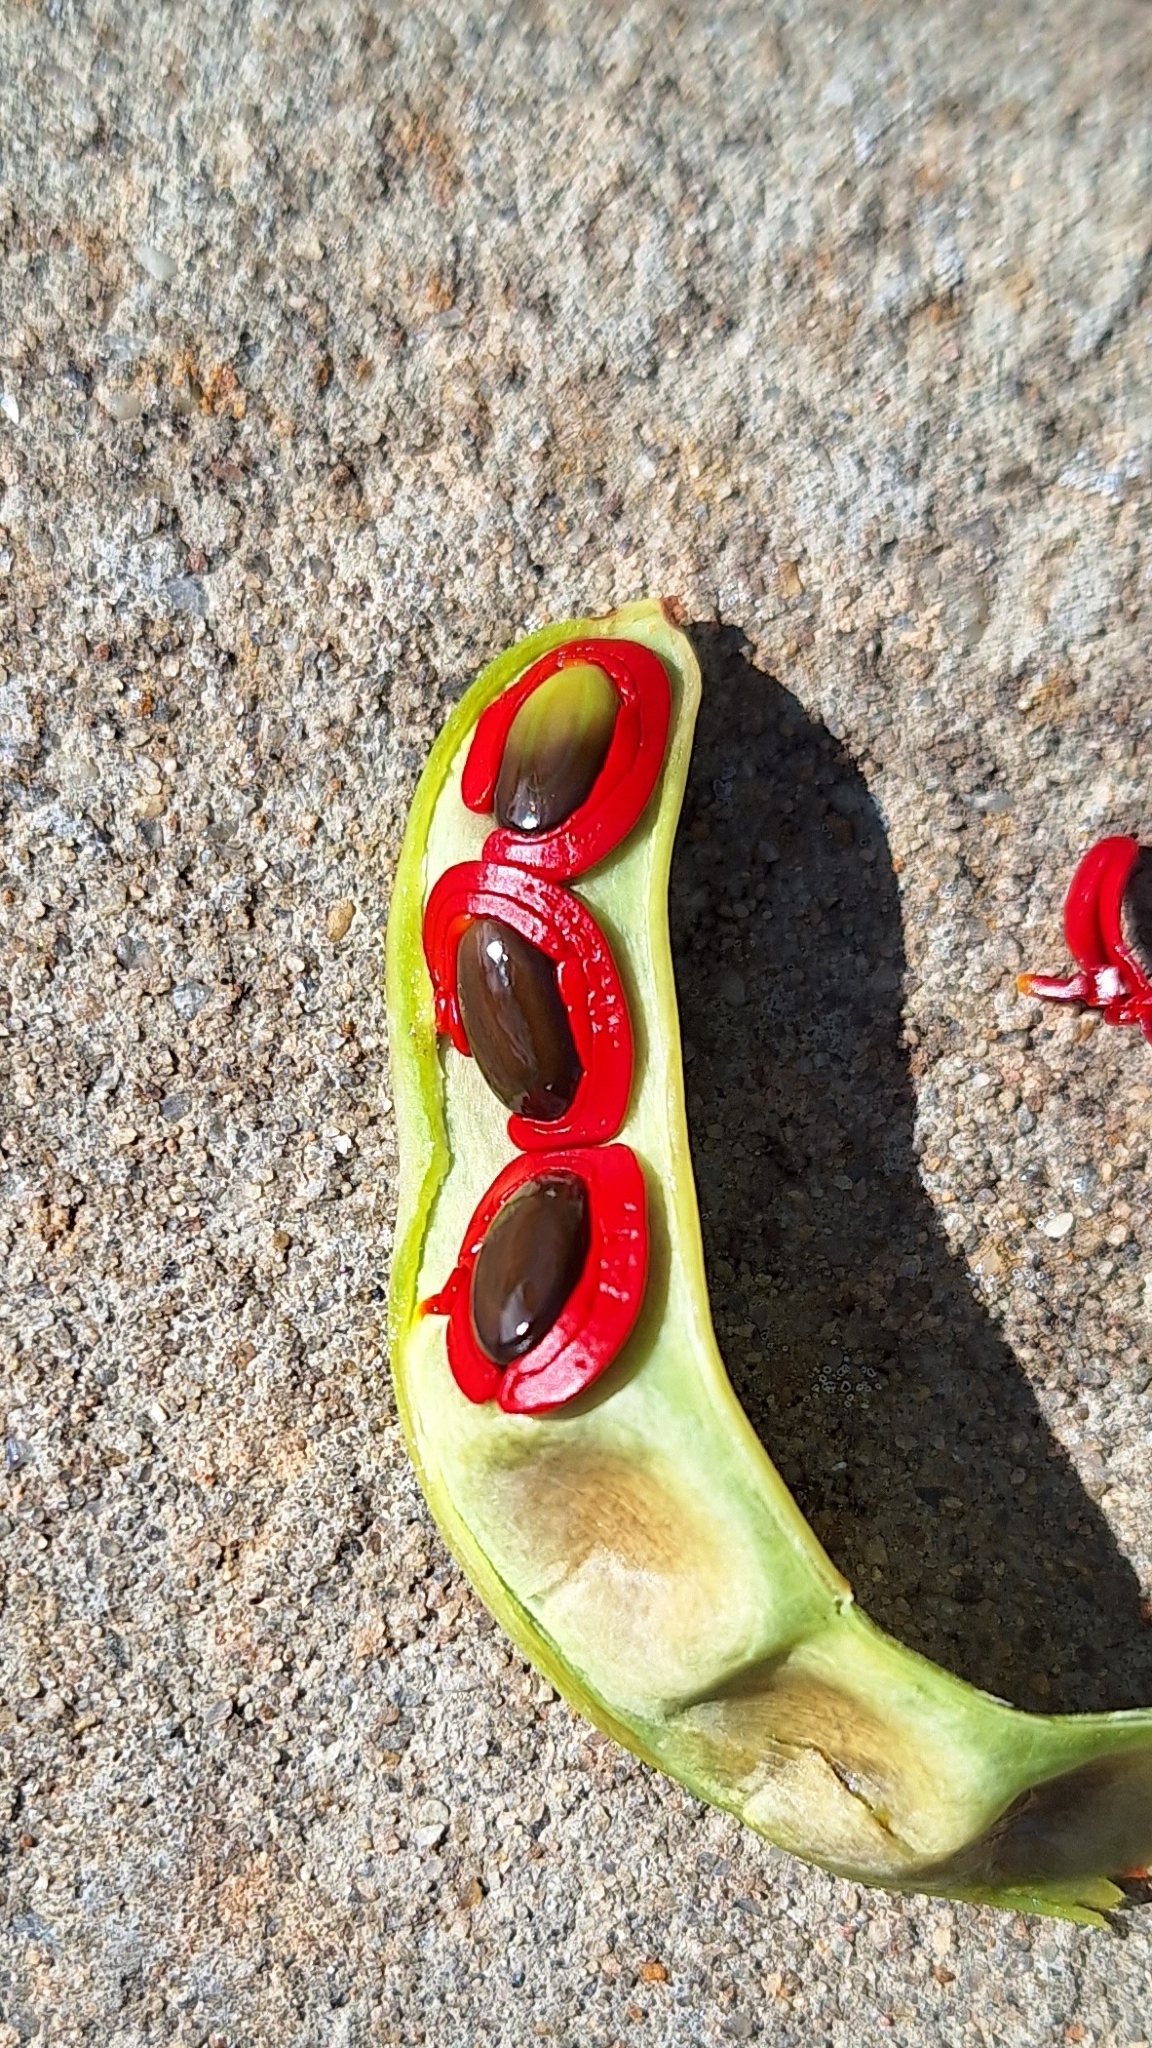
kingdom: Plantae
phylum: Tracheophyta
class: Magnoliopsida
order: Fabales
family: Fabaceae
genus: Acacia
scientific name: Acacia cyclops
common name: Coastal wattle
